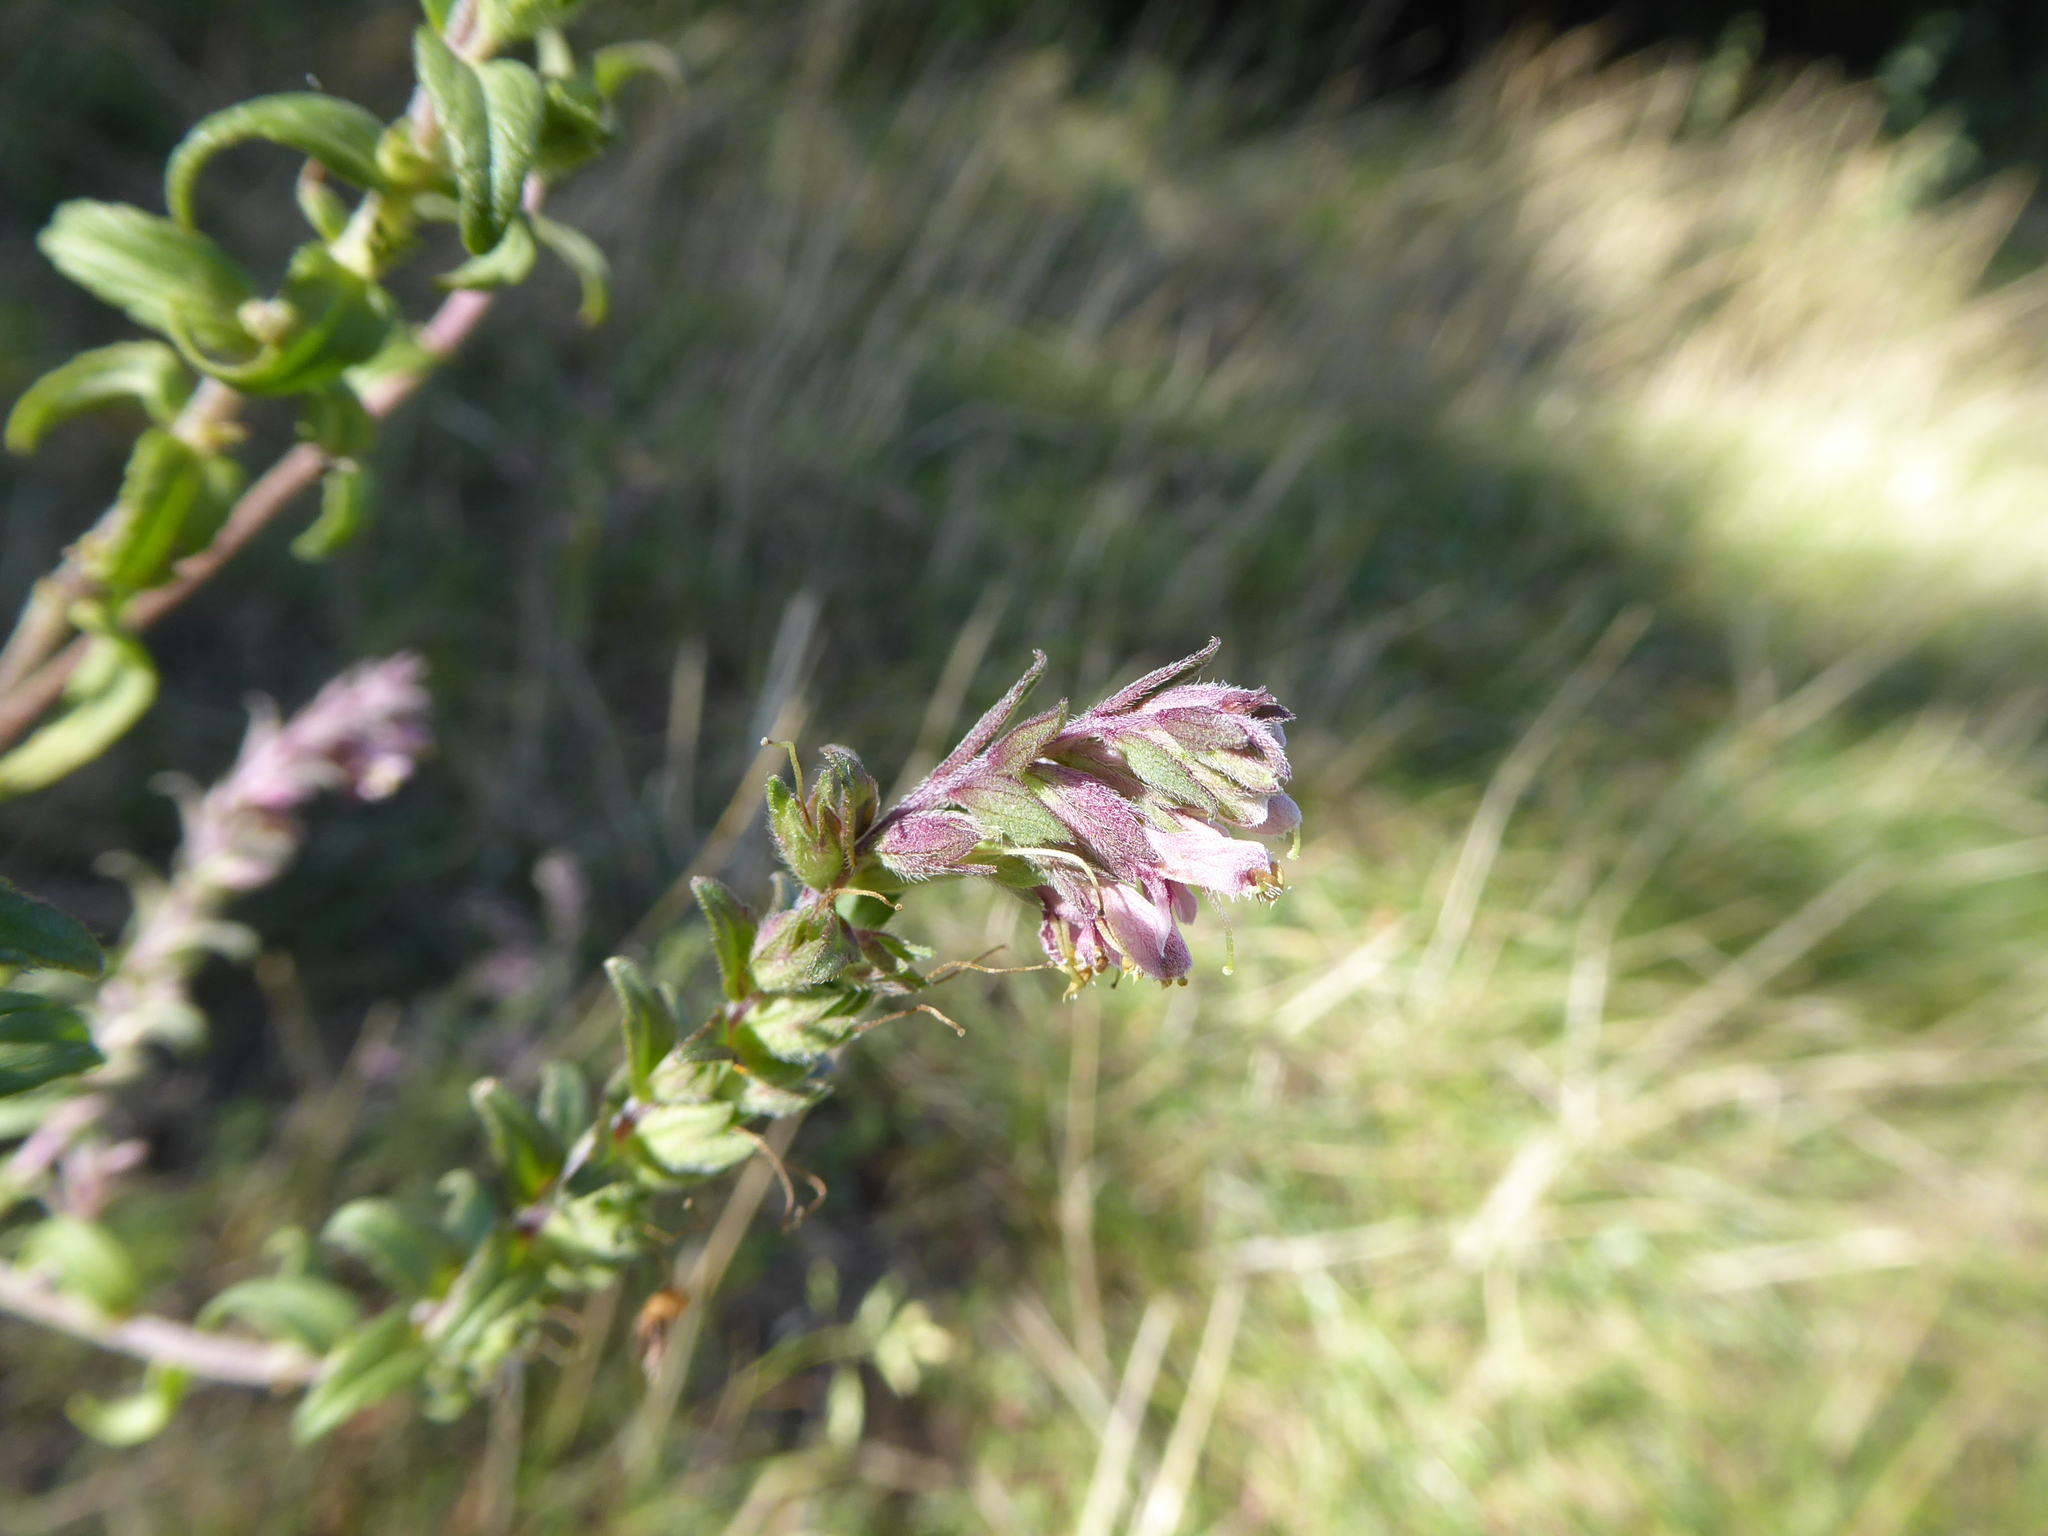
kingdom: Plantae
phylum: Tracheophyta
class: Magnoliopsida
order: Lamiales
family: Orobanchaceae
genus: Odontites
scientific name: Odontites vulgaris
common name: Broomrape
